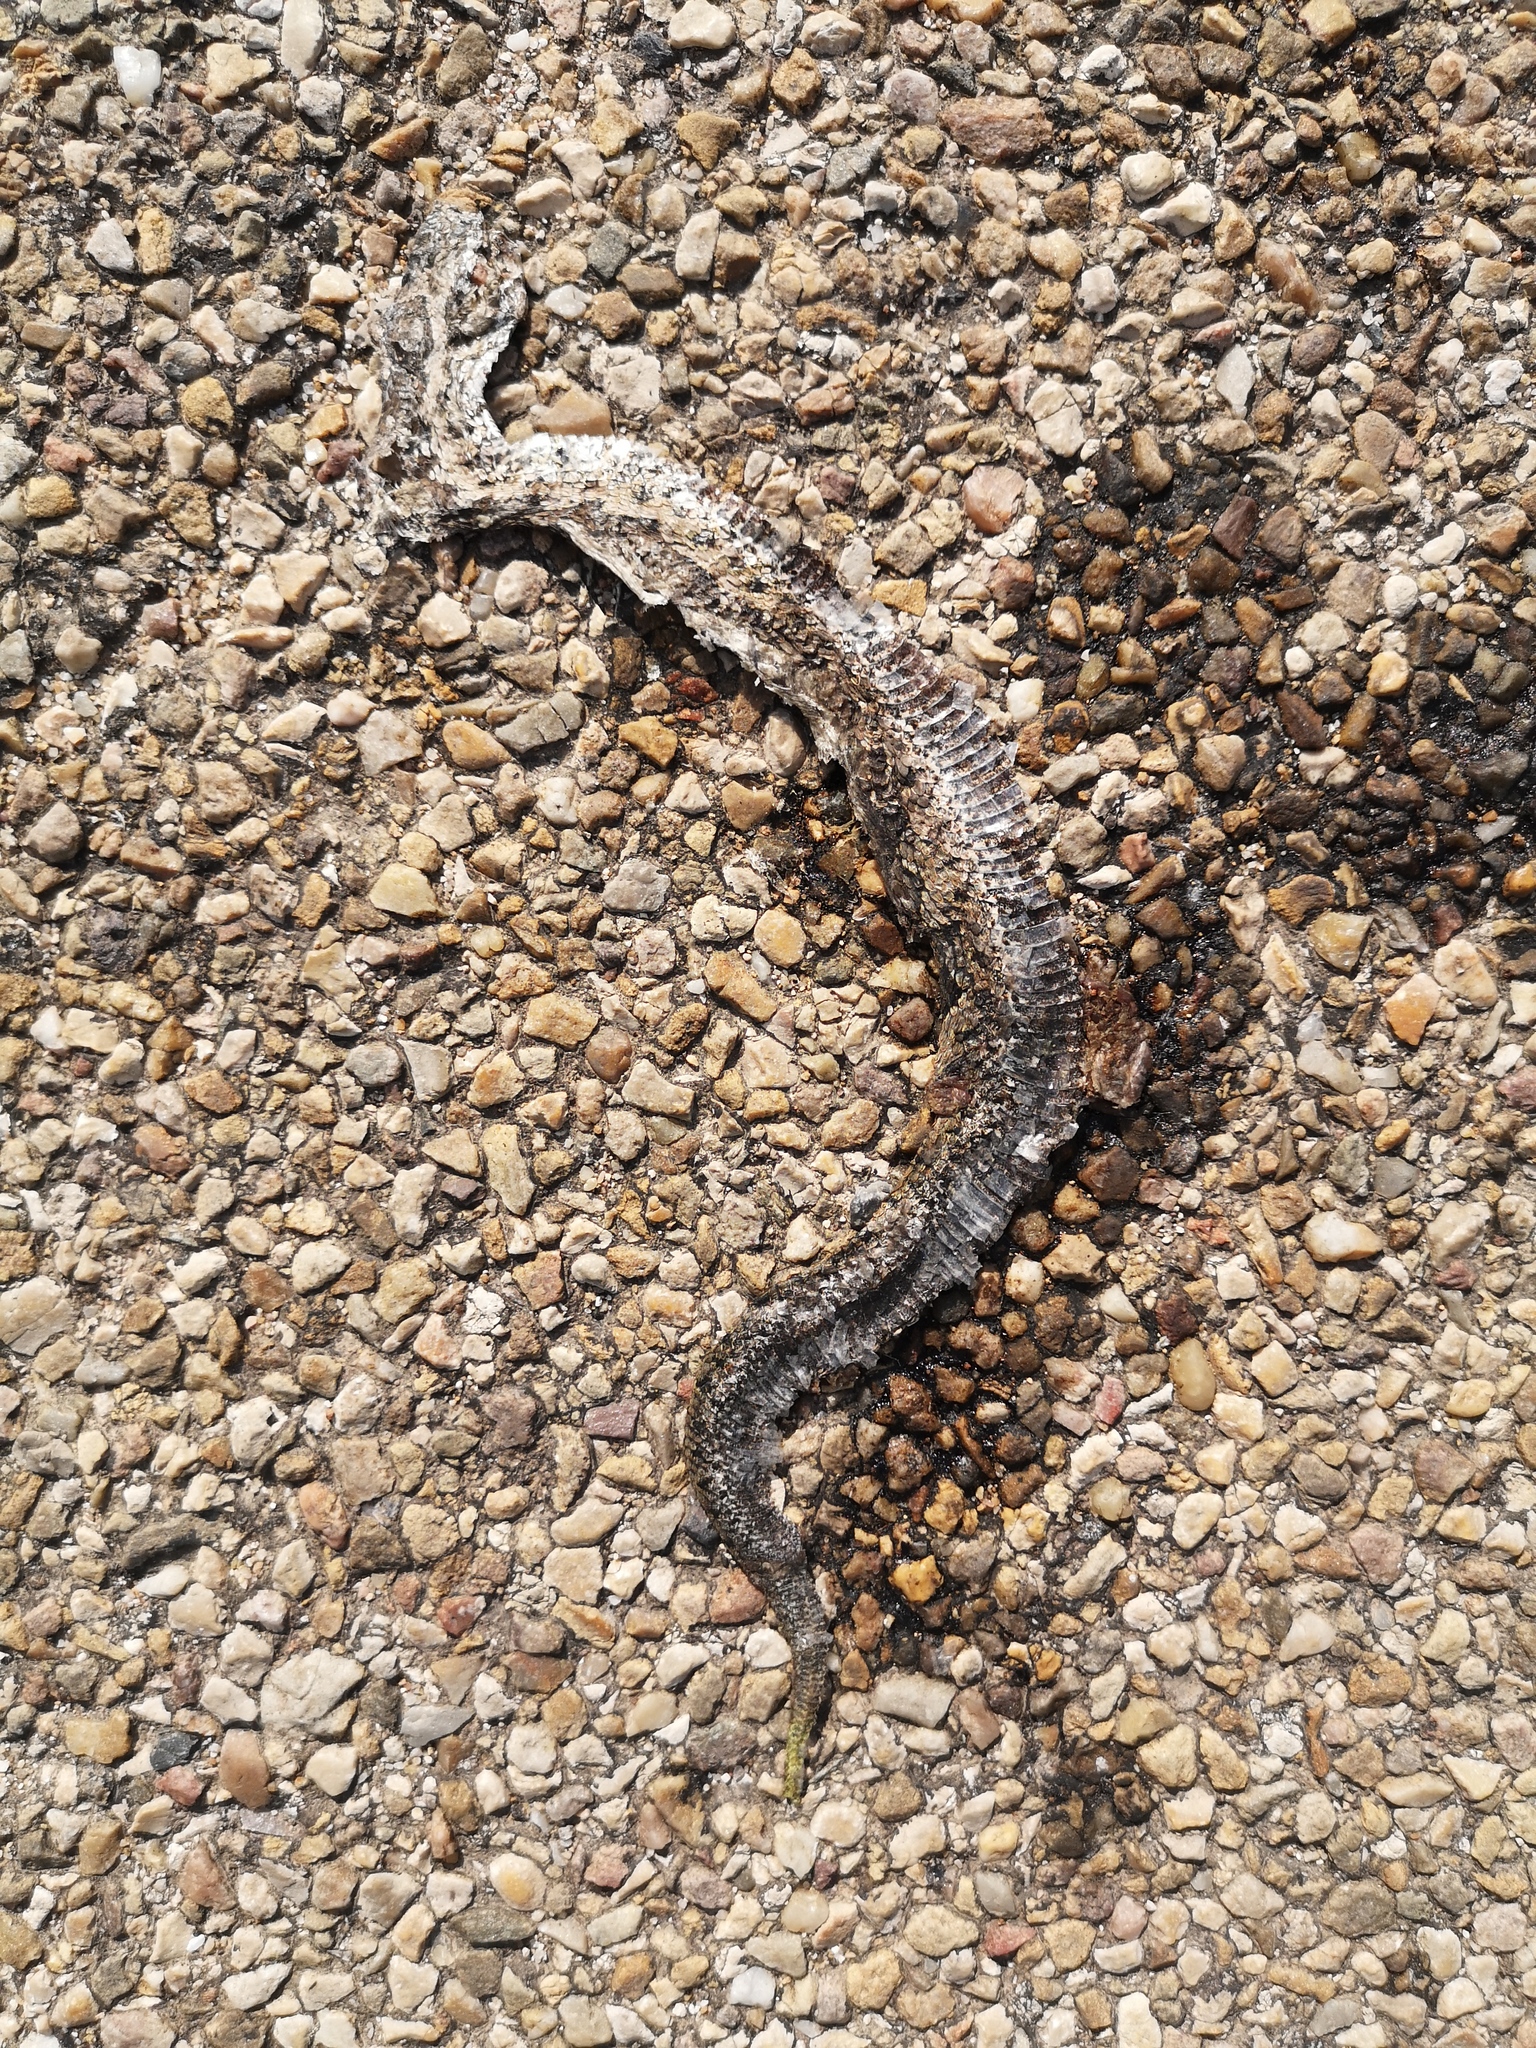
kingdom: Animalia
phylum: Chordata
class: Squamata
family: Viperidae
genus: Vipera
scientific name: Vipera latastei
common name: Lataste's viper
